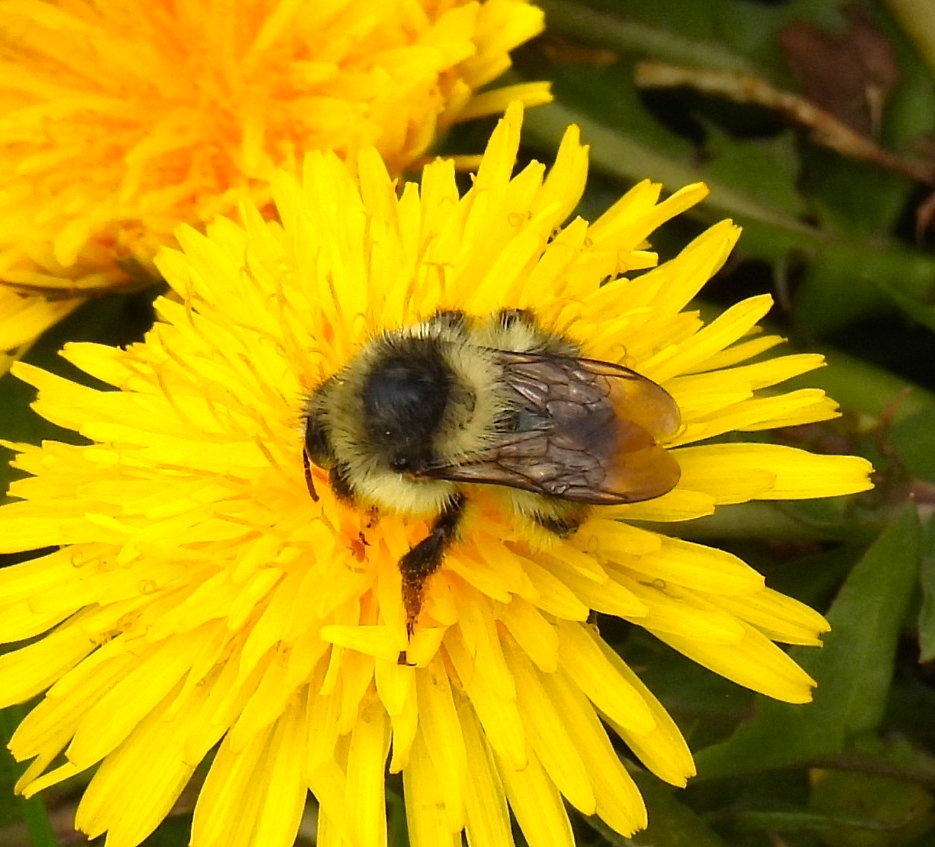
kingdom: Animalia
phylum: Arthropoda
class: Insecta
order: Hymenoptera
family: Apidae
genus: Bombus
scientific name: Bombus sylvarum
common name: Shrill carder bee
